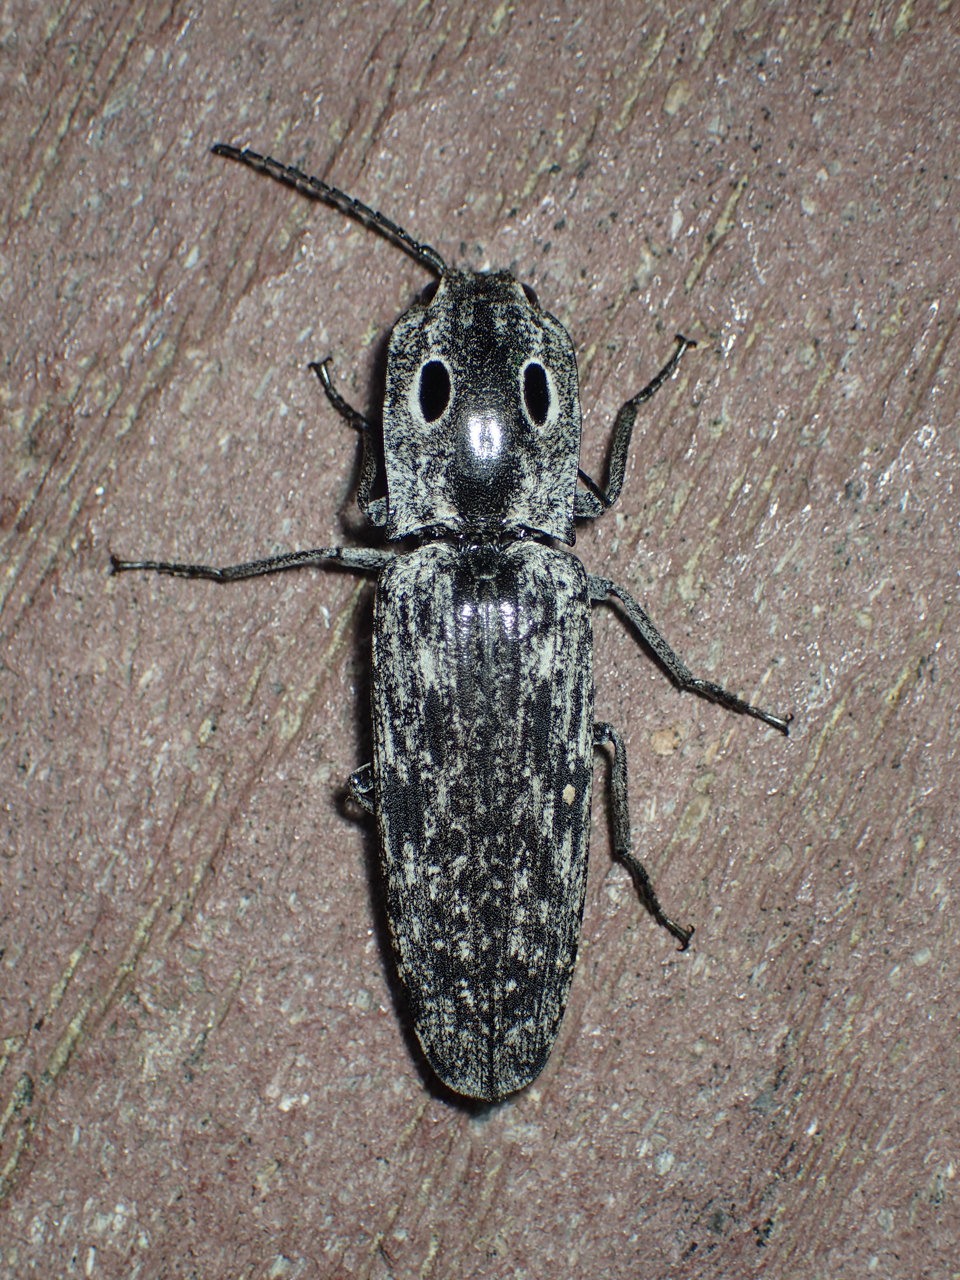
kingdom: Animalia
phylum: Arthropoda
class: Insecta
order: Coleoptera
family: Elateridae
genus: Alaus
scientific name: Alaus myops
